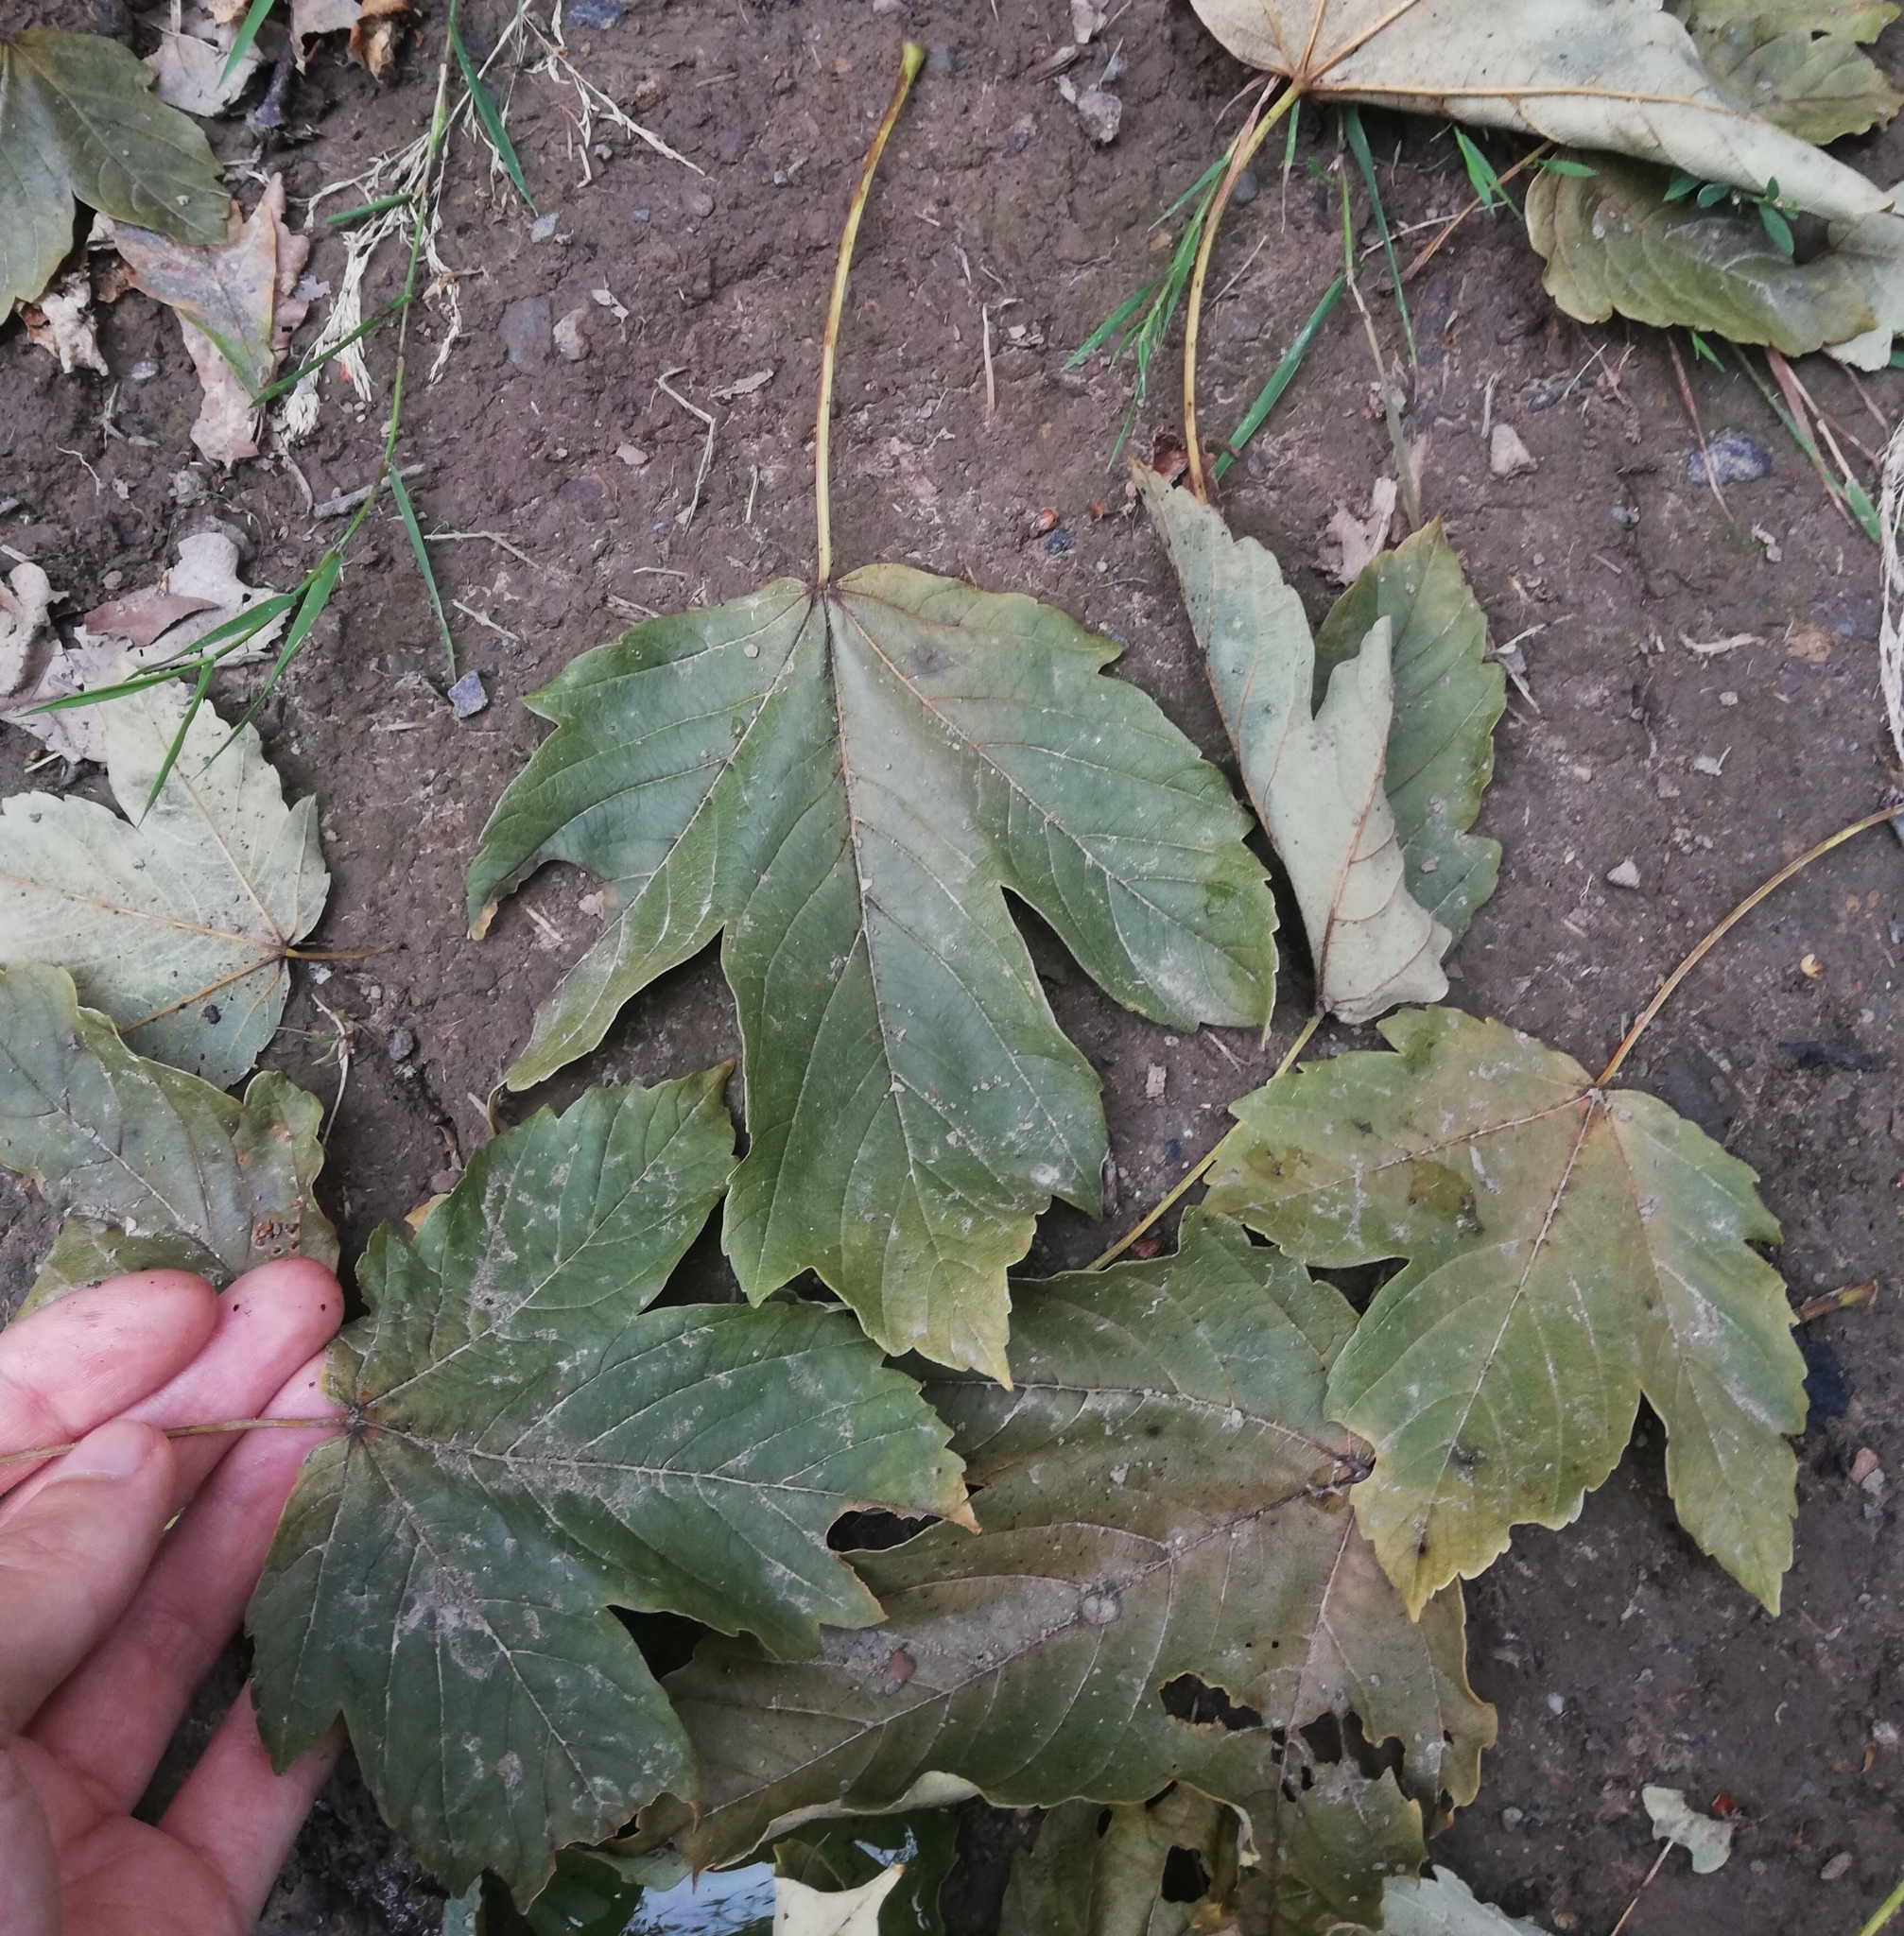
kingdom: Plantae
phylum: Tracheophyta
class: Magnoliopsida
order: Sapindales
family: Sapindaceae
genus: Acer
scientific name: Acer pseudoplatanus
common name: Sycamore
